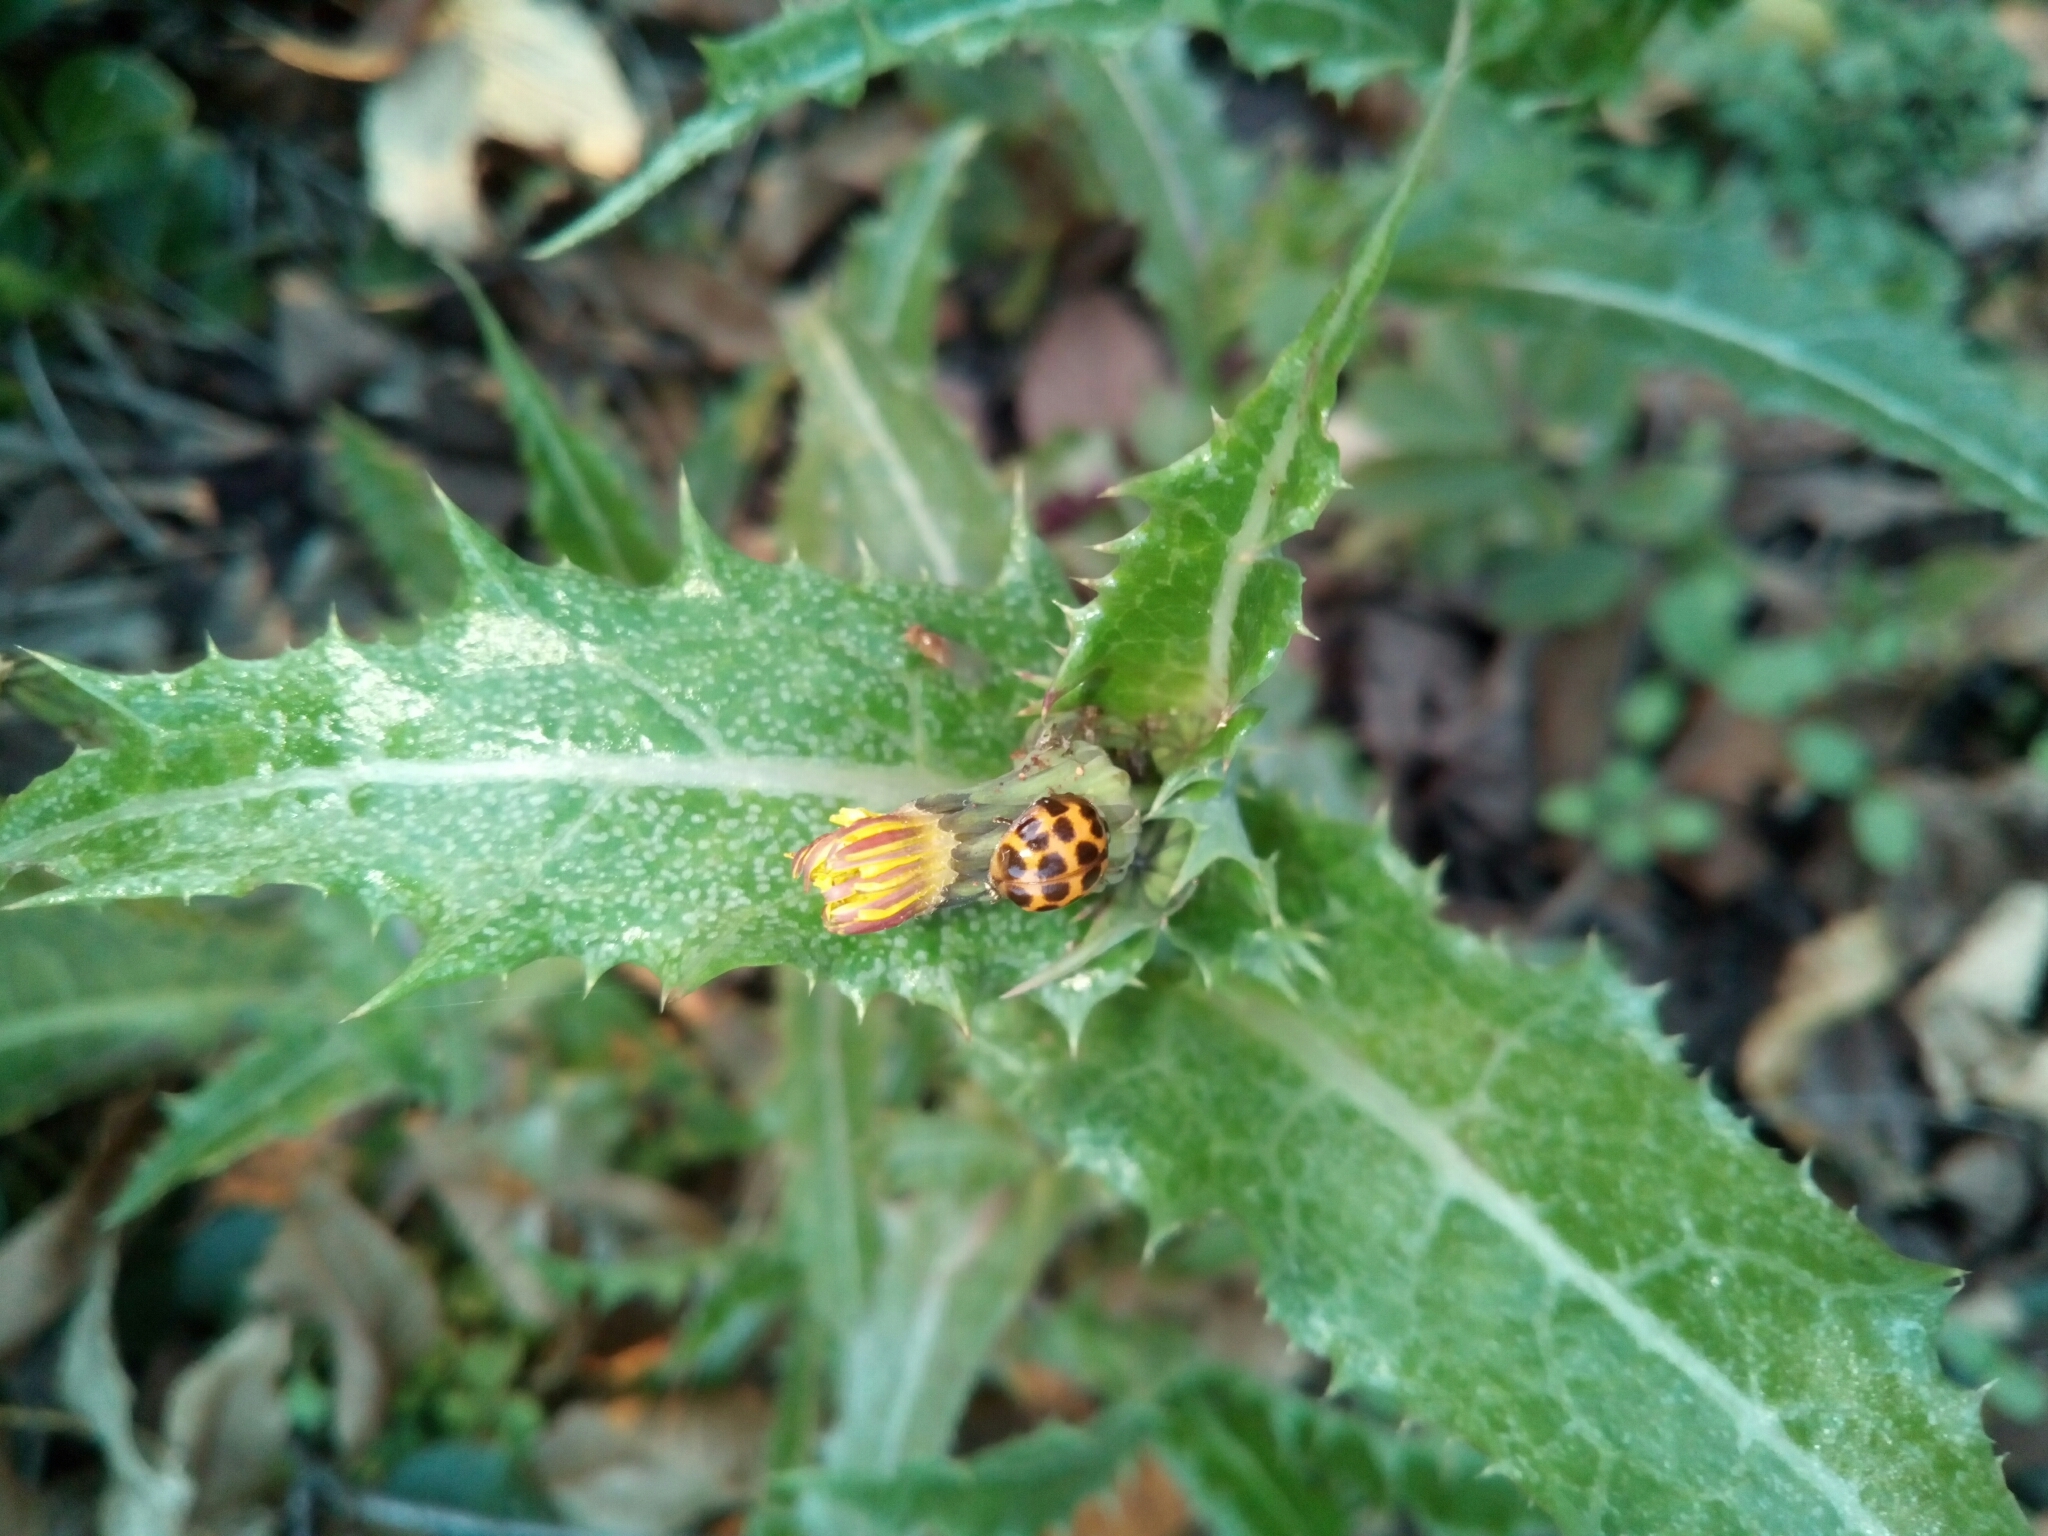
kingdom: Animalia
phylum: Arthropoda
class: Insecta
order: Coleoptera
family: Coccinellidae
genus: Harmonia
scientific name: Harmonia axyridis
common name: Harlequin ladybird
